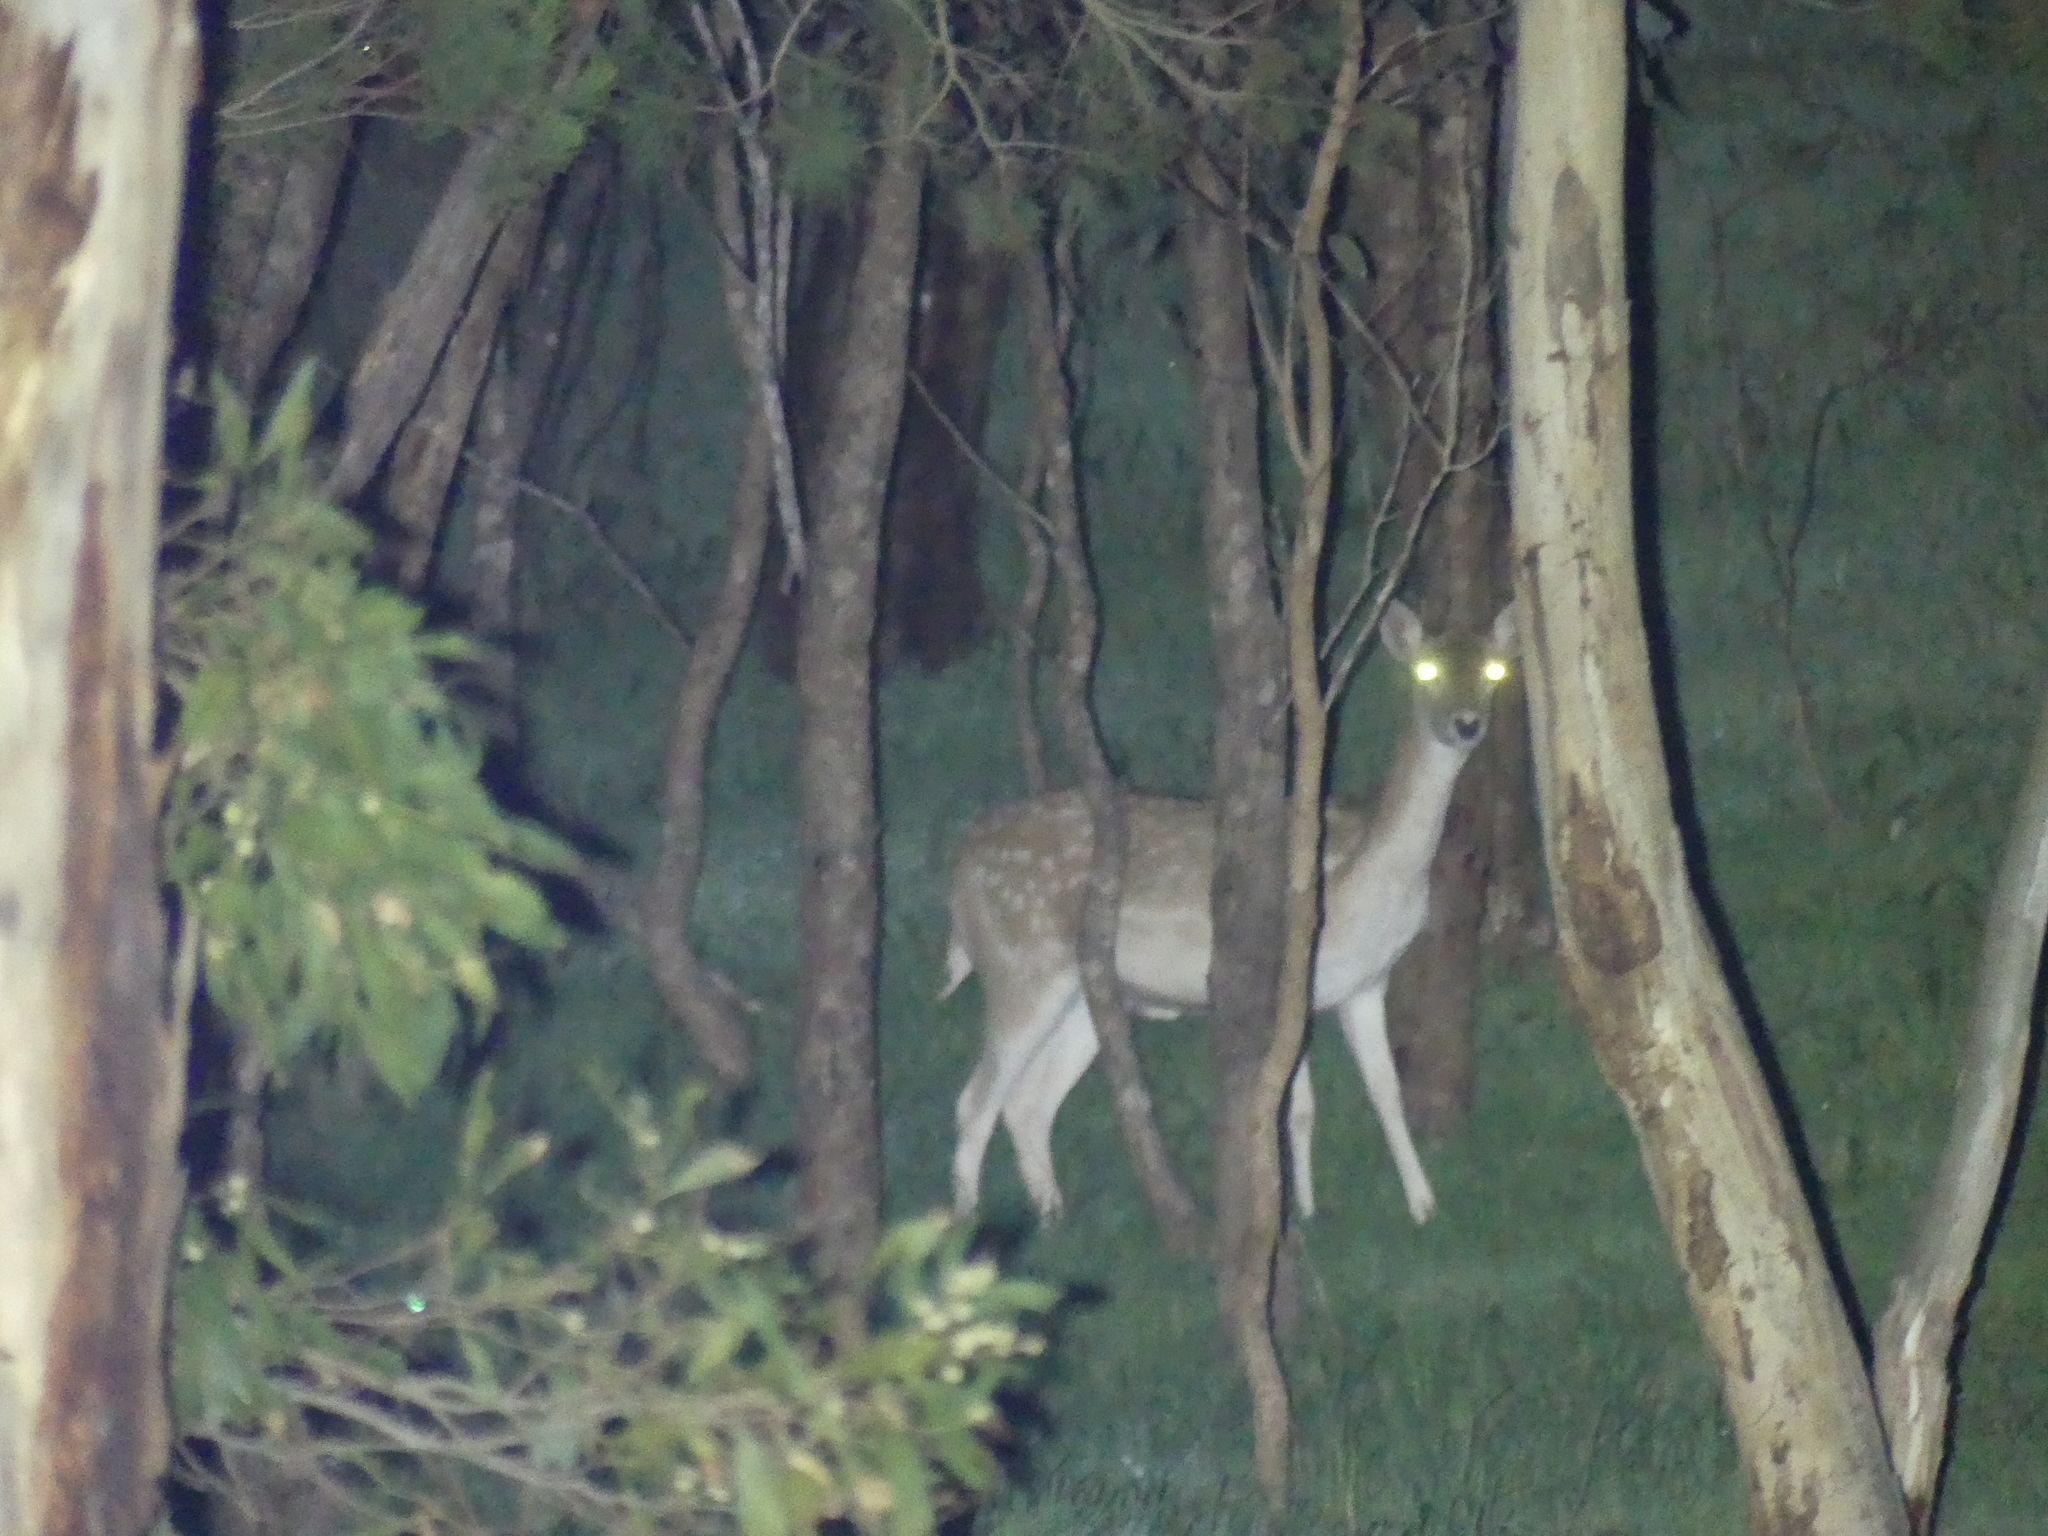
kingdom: Animalia
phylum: Chordata
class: Mammalia
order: Artiodactyla
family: Cervidae
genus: Dama
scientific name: Dama dama
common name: Fallow deer
